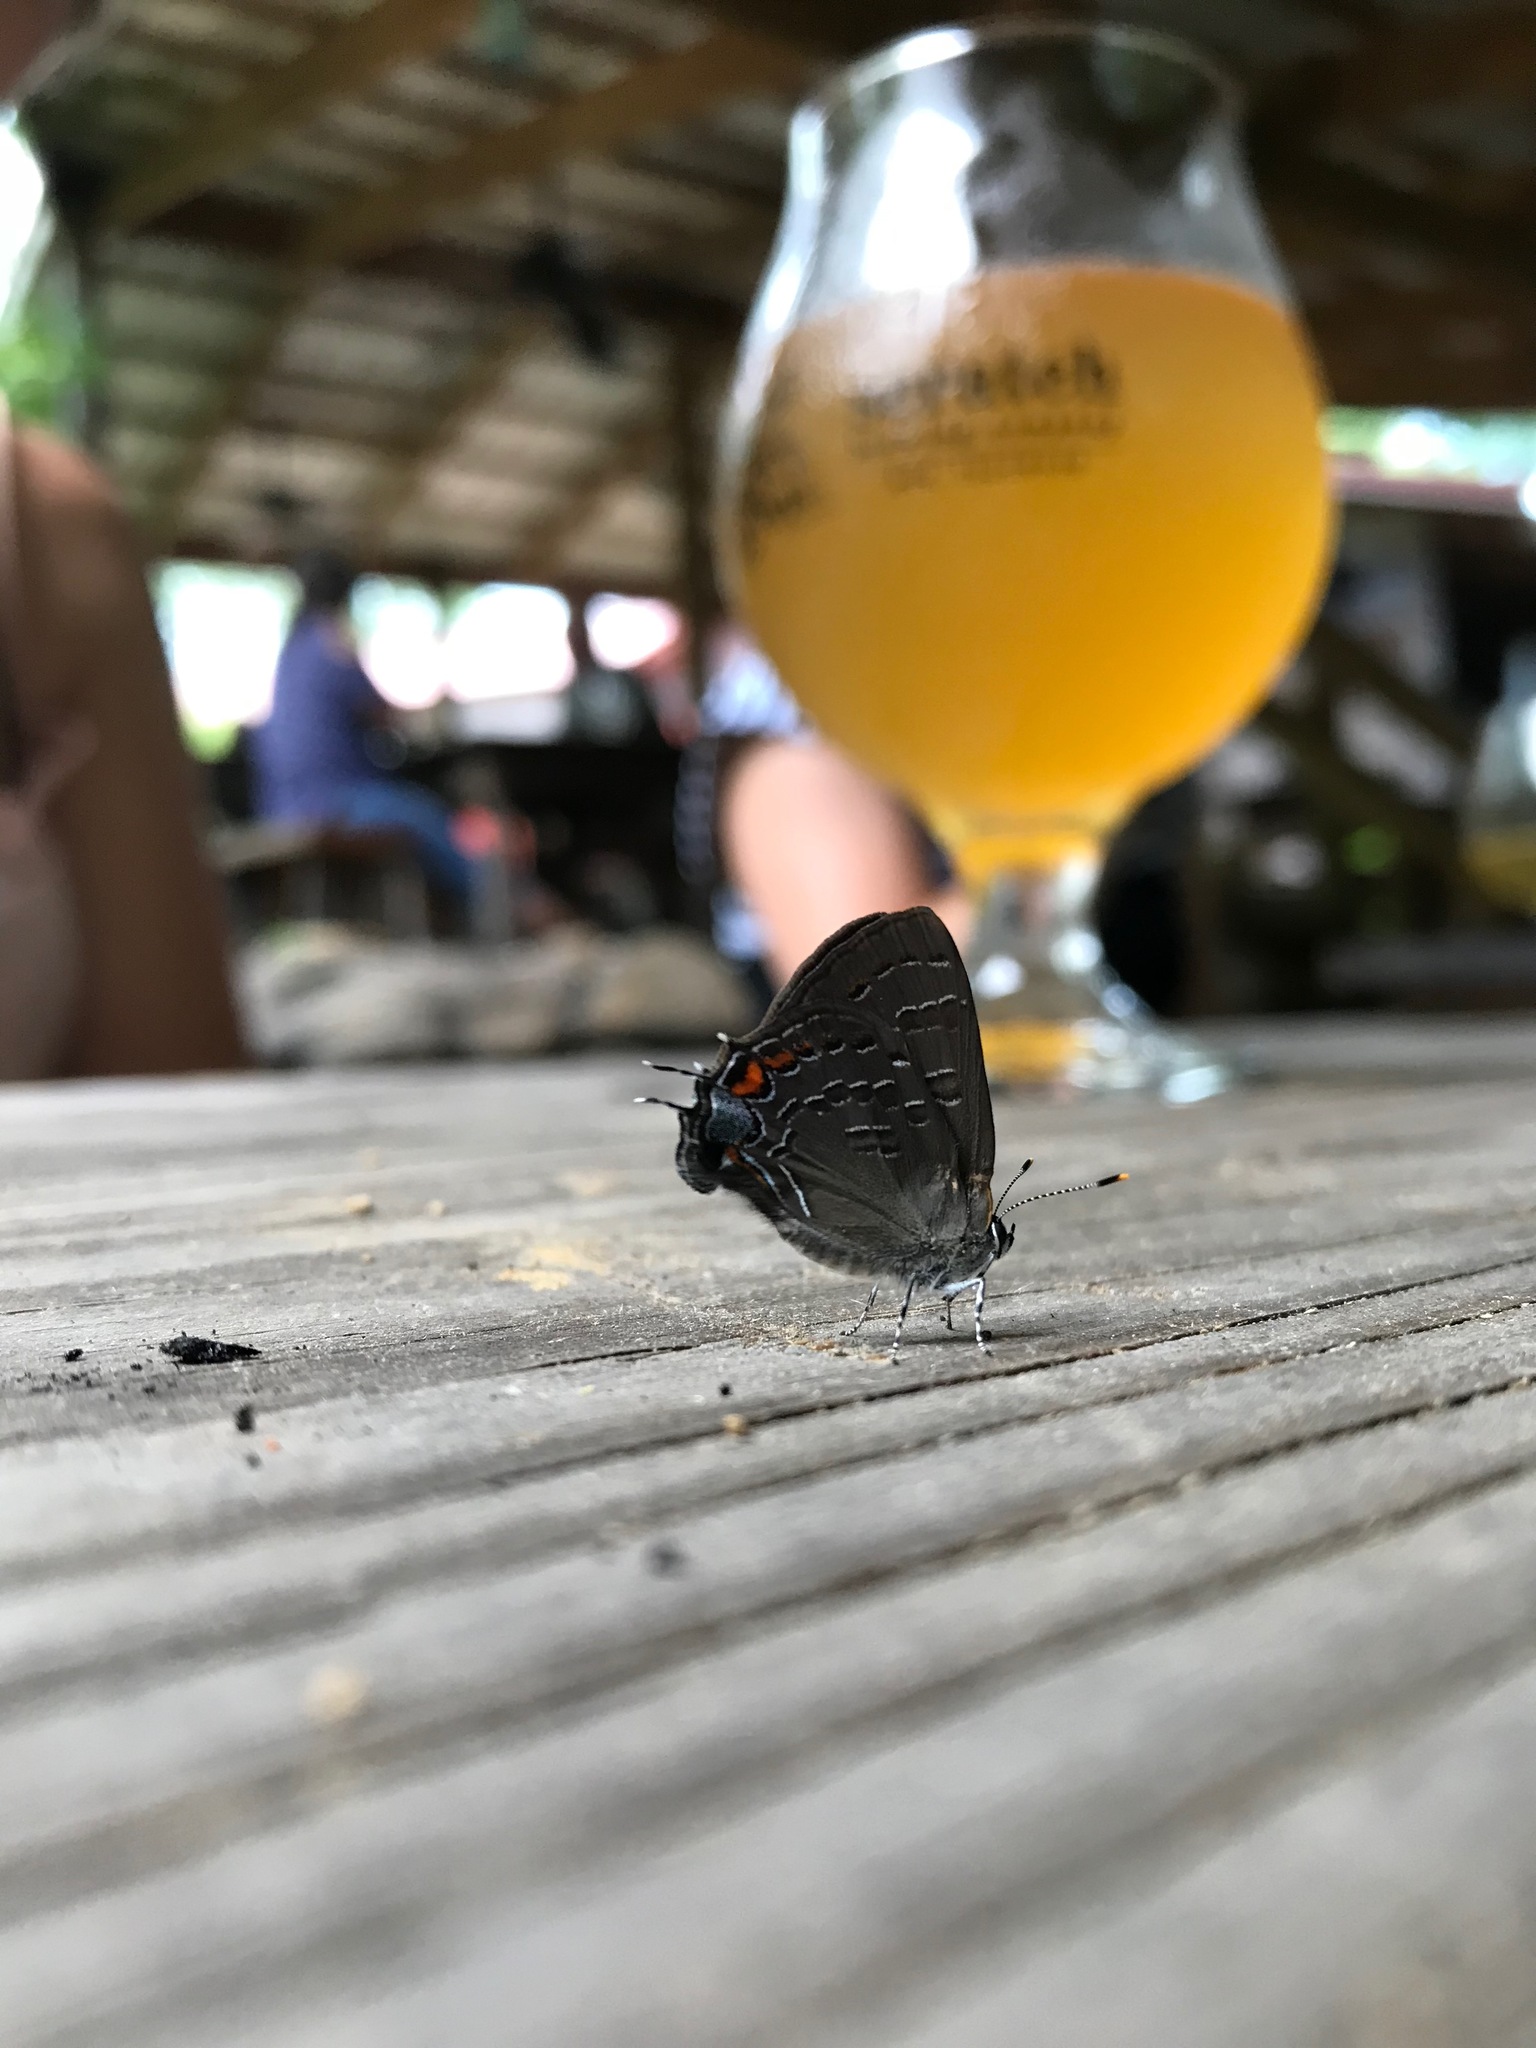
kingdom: Animalia
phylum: Arthropoda
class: Insecta
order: Lepidoptera
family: Lycaenidae
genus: Satyrium
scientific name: Satyrium calanus
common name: Banded hairstreak
